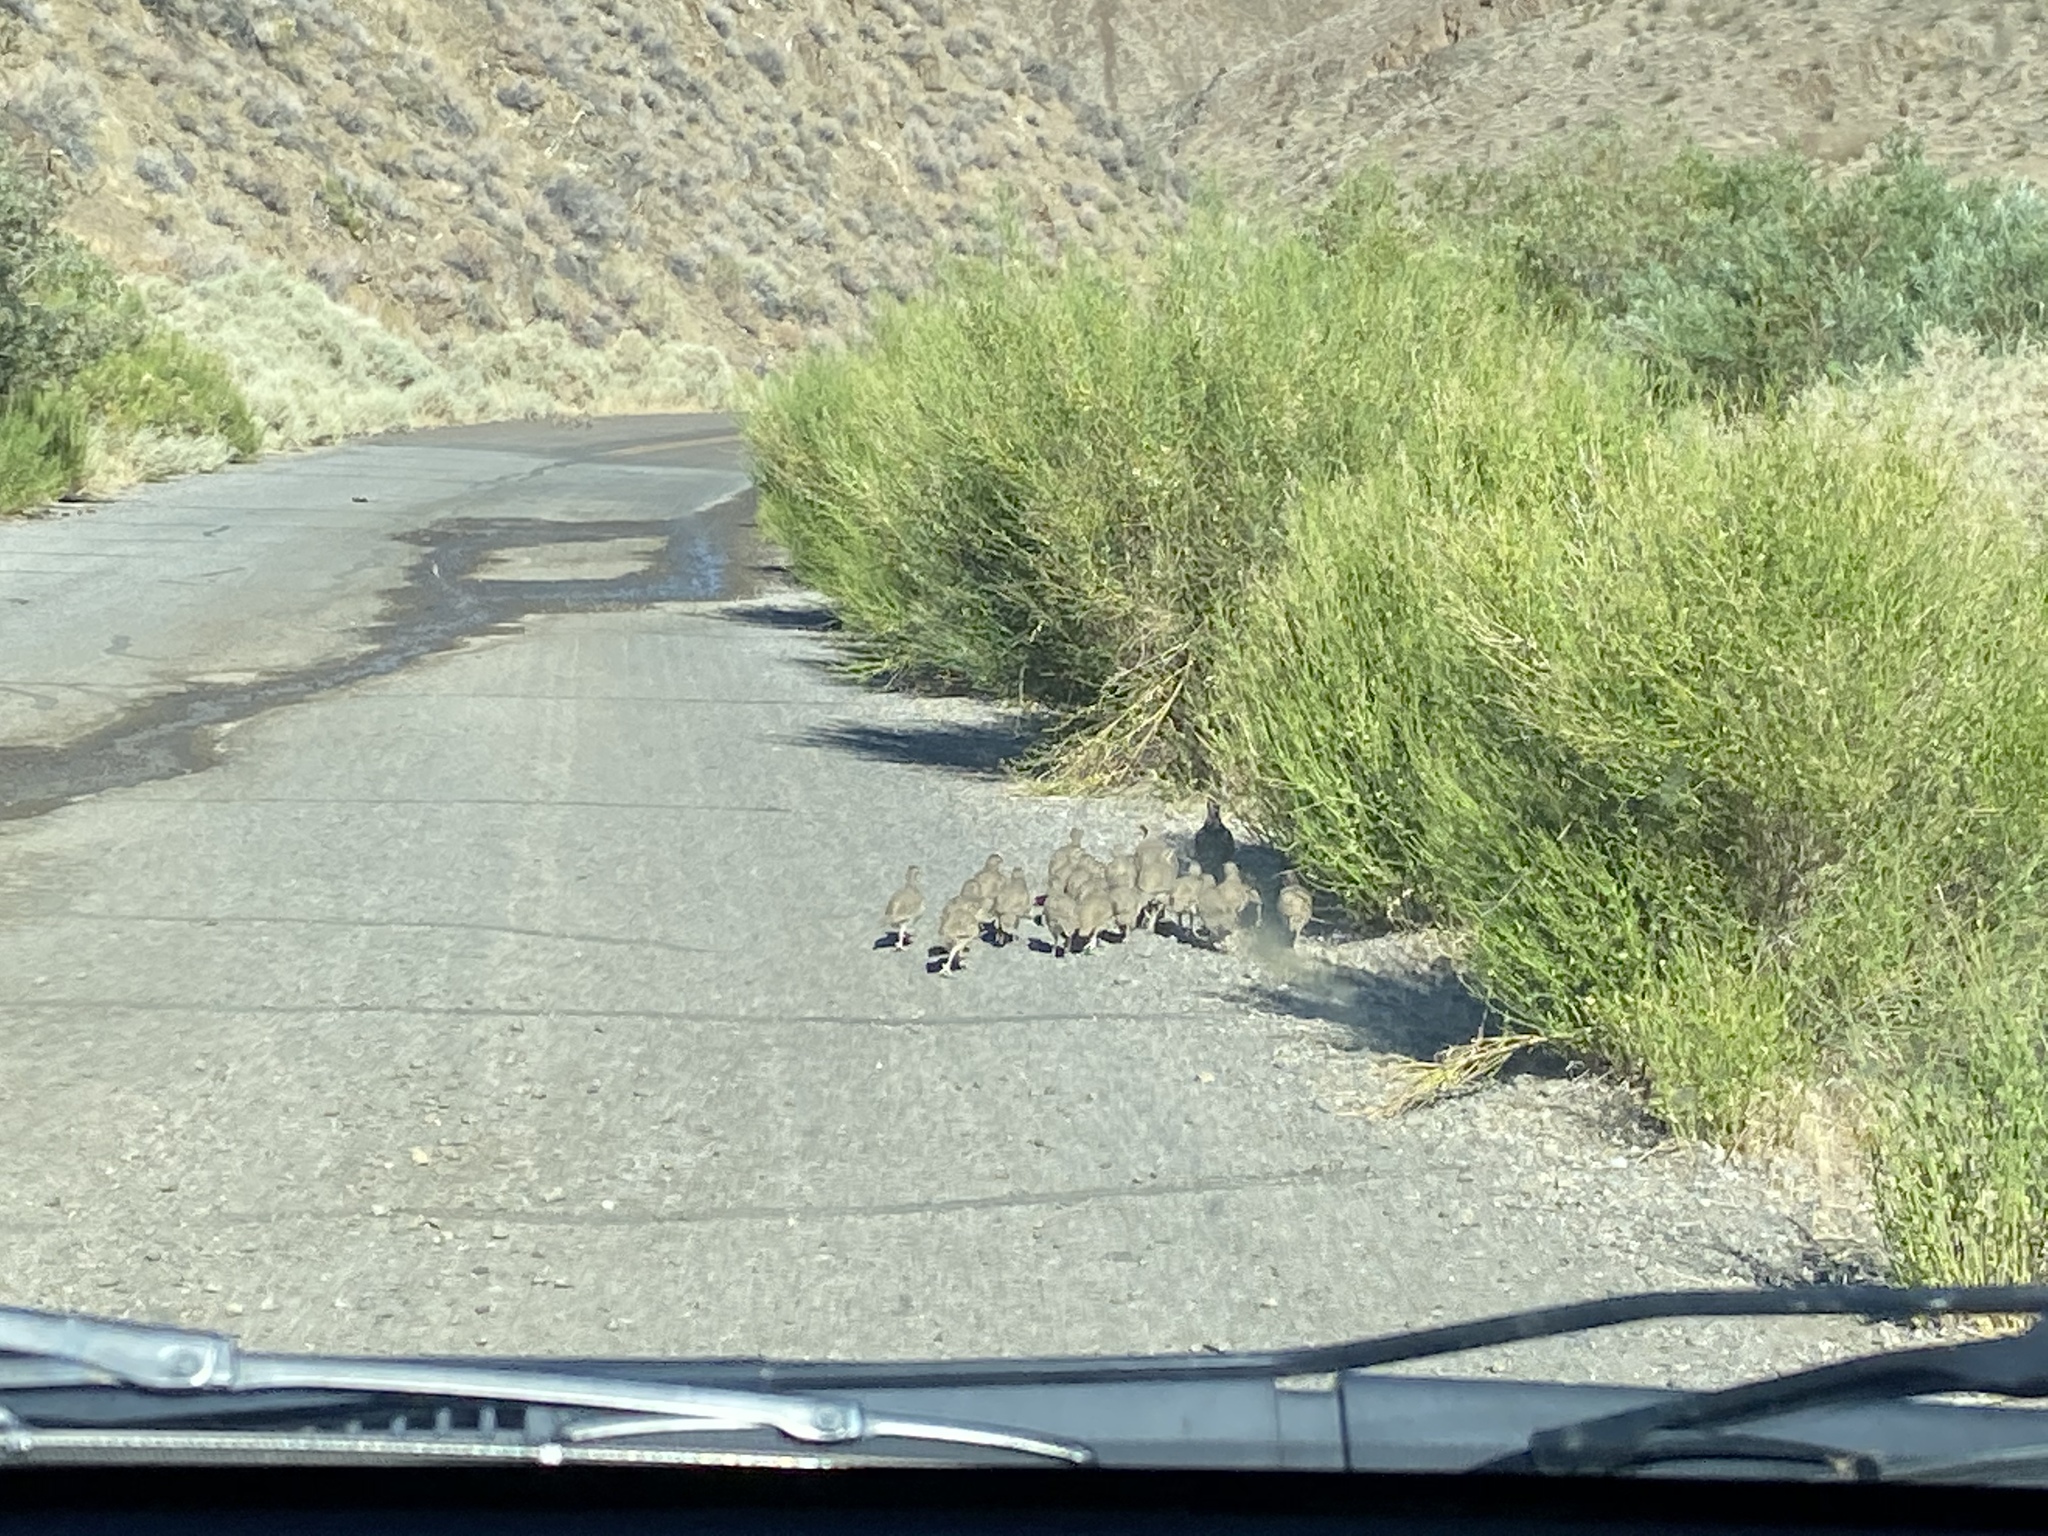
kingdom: Animalia
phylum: Chordata
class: Aves
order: Galliformes
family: Phasianidae
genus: Alectoris
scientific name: Alectoris chukar
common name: Chukar
